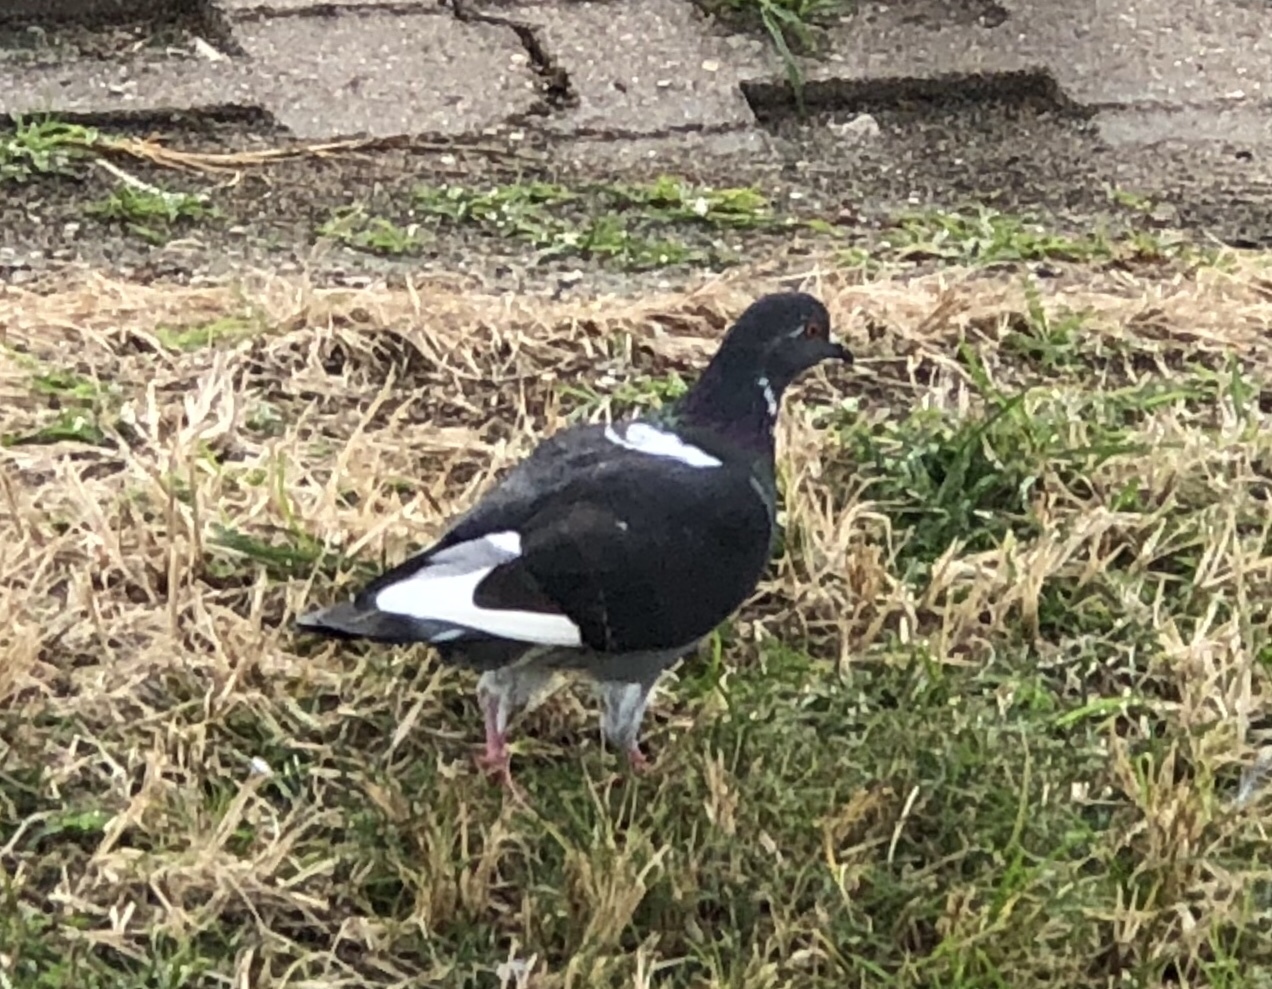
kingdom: Animalia
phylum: Chordata
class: Aves
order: Columbiformes
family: Columbidae
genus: Columba
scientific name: Columba livia
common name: Rock pigeon
